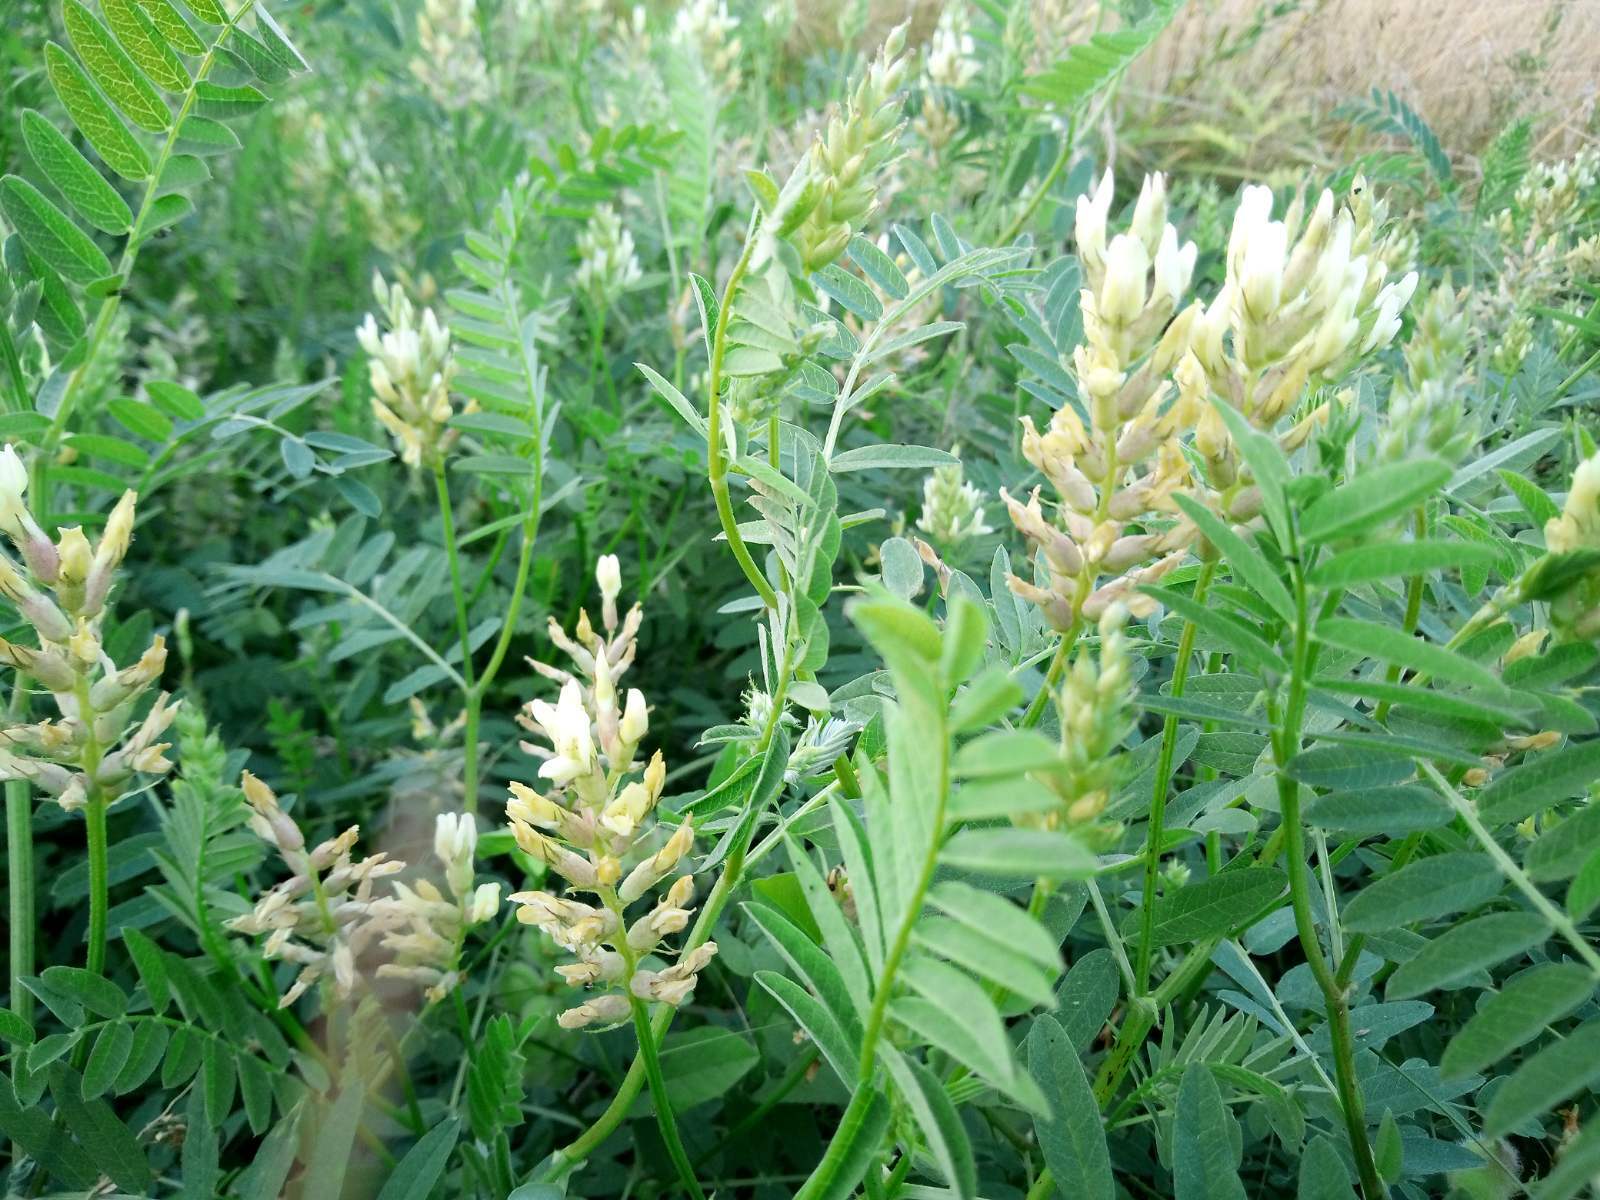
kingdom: Plantae
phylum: Tracheophyta
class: Magnoliopsida
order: Fabales
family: Fabaceae
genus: Astragalus
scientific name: Astragalus cicer
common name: Chick-pea milk-vetch
